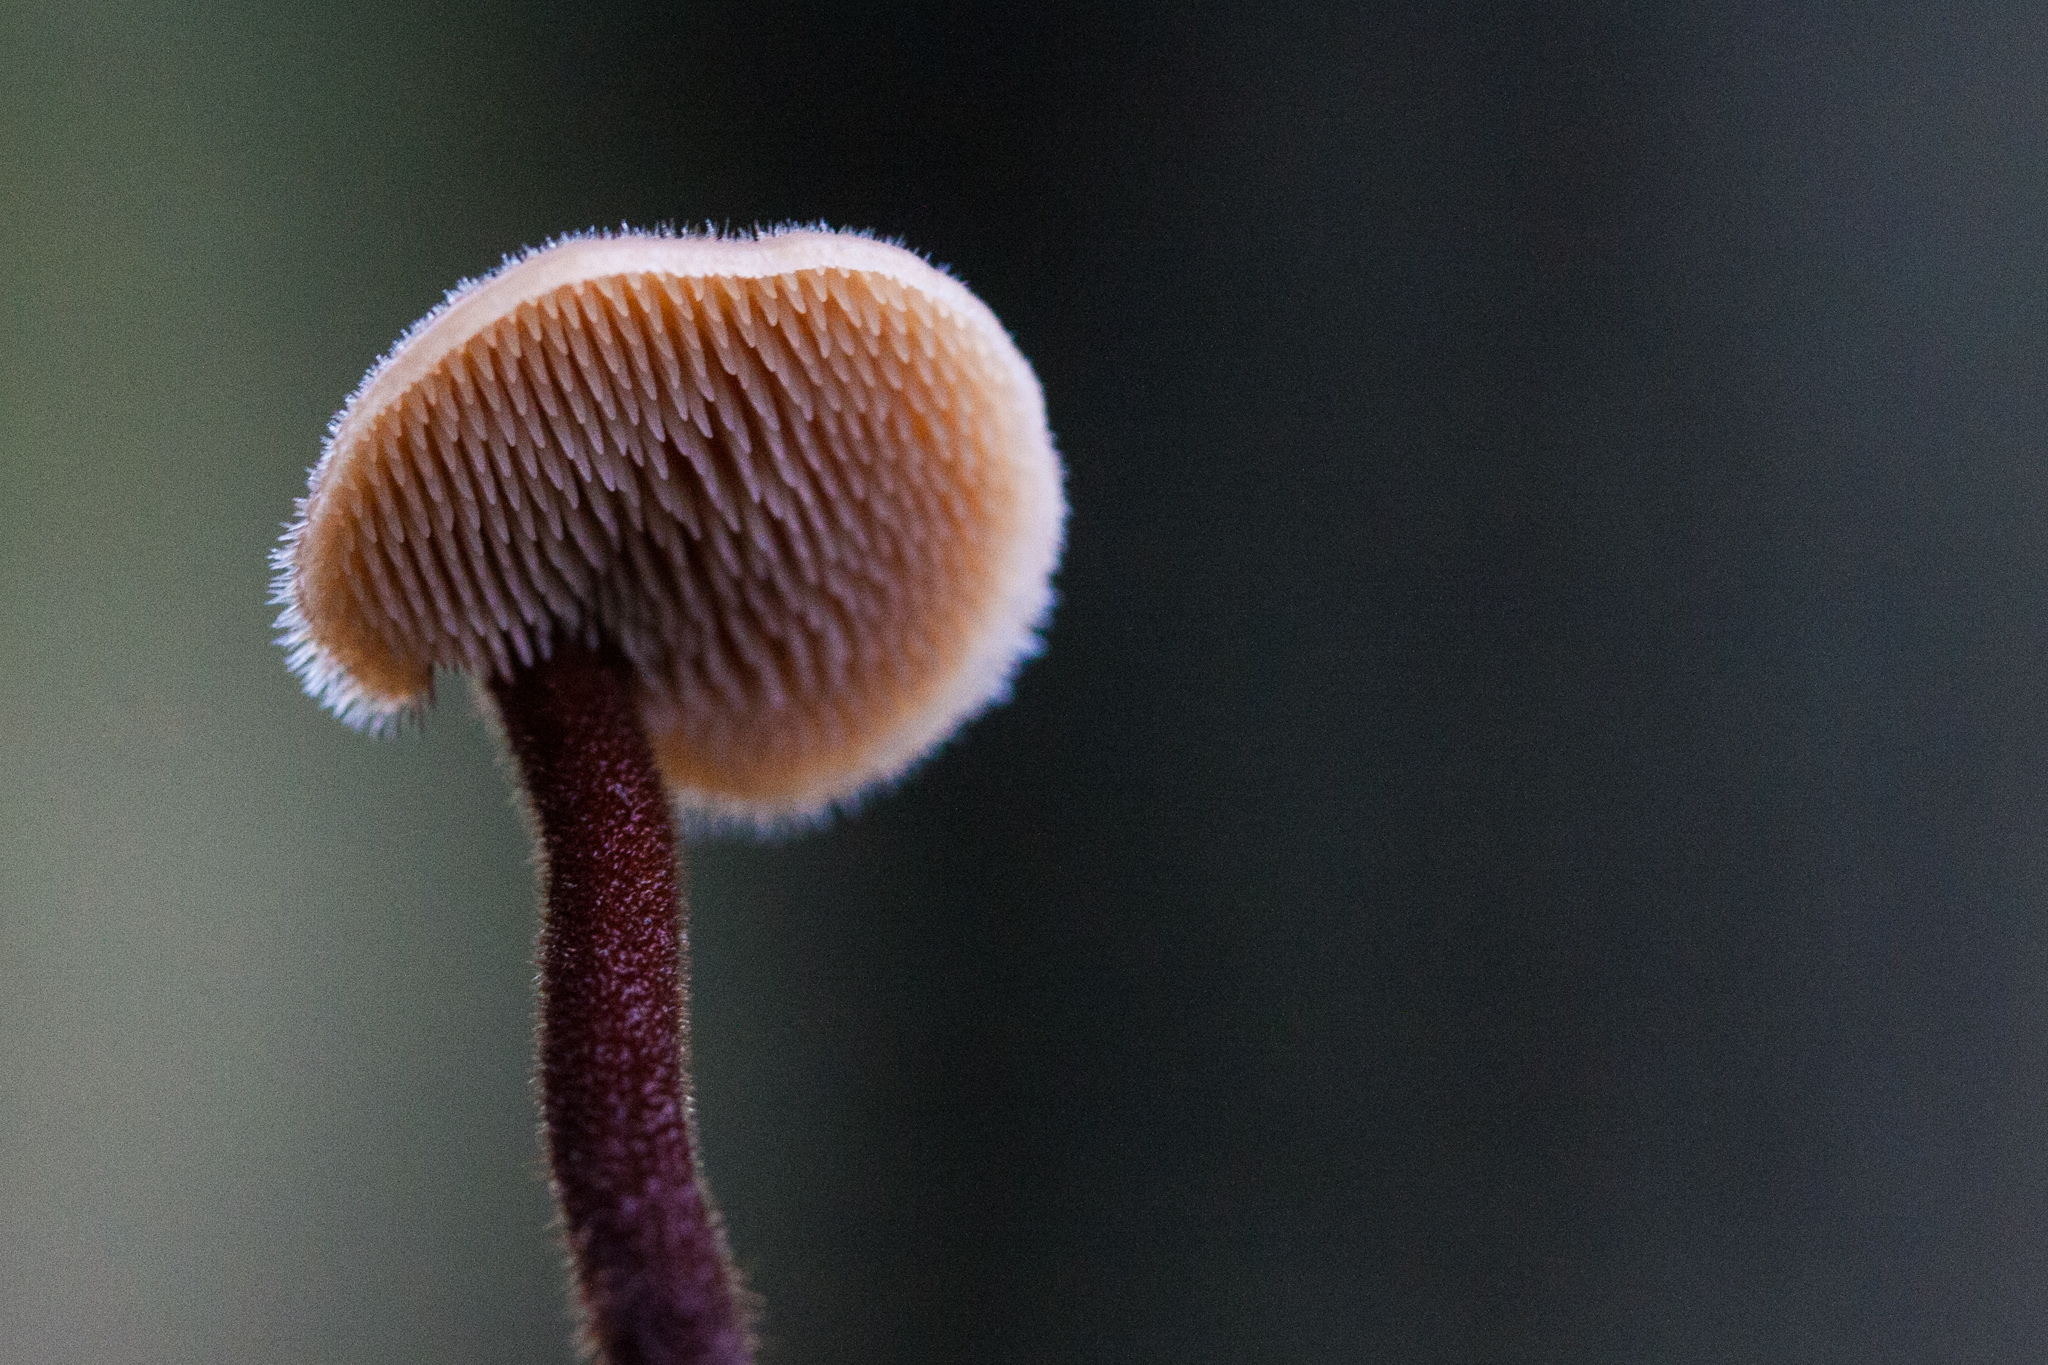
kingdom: Fungi
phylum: Basidiomycota
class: Agaricomycetes
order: Russulales
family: Auriscalpiaceae
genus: Auriscalpium
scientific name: Auriscalpium vulgare
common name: Earpick fungus
